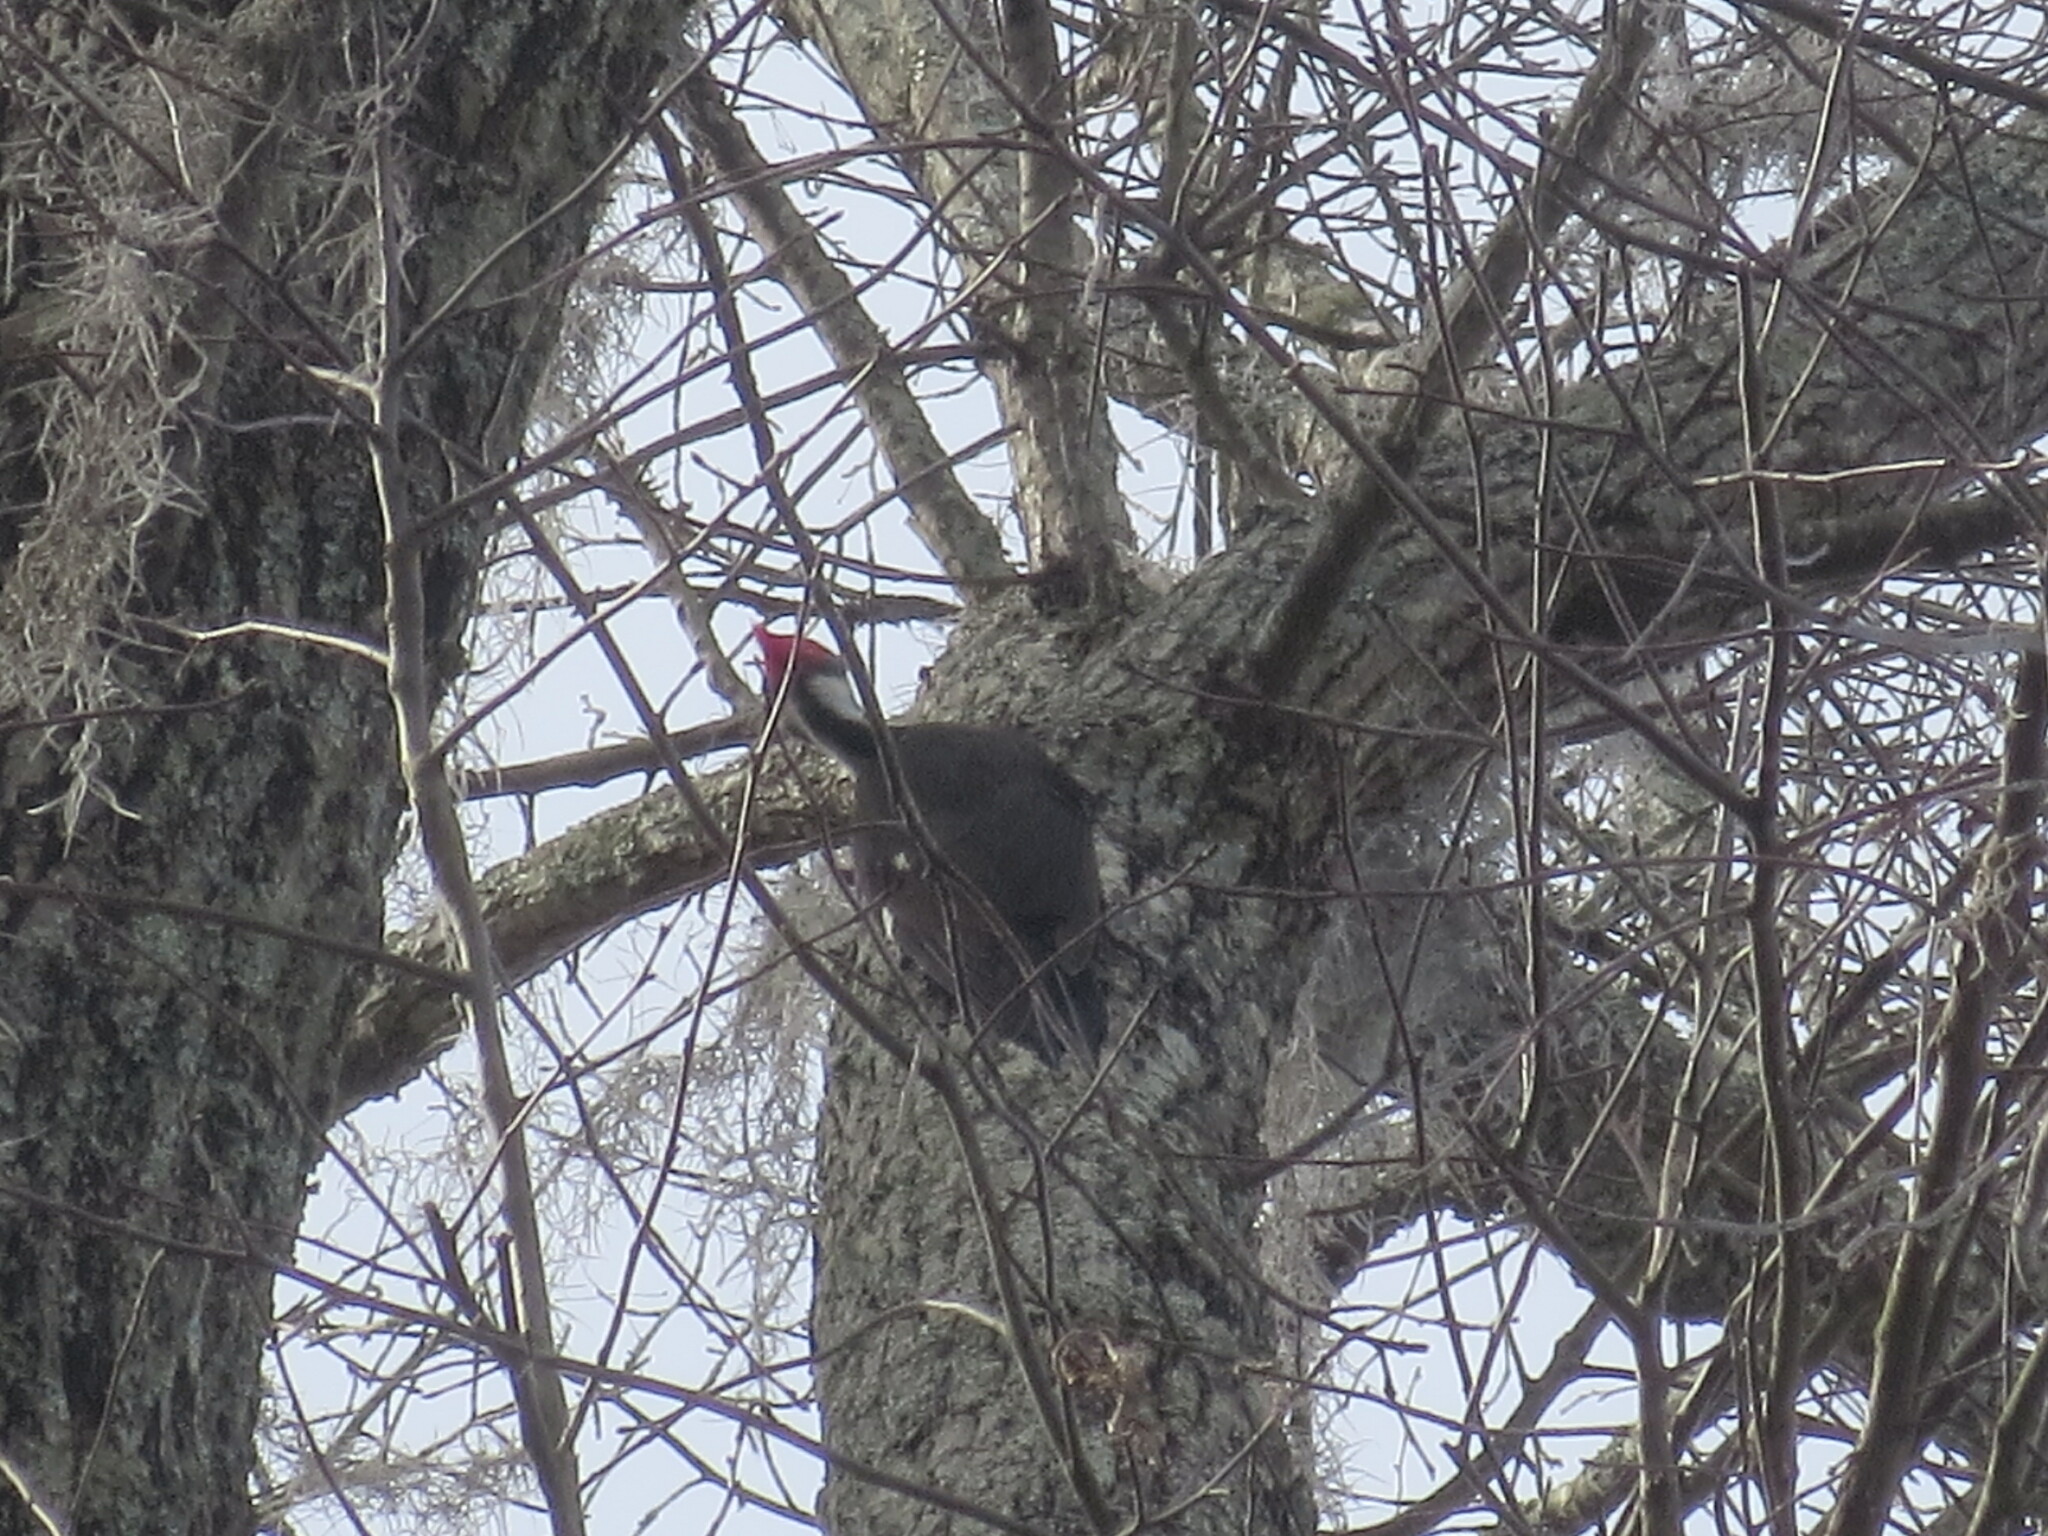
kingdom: Animalia
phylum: Chordata
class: Aves
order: Piciformes
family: Picidae
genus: Dryocopus
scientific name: Dryocopus pileatus
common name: Pileated woodpecker
